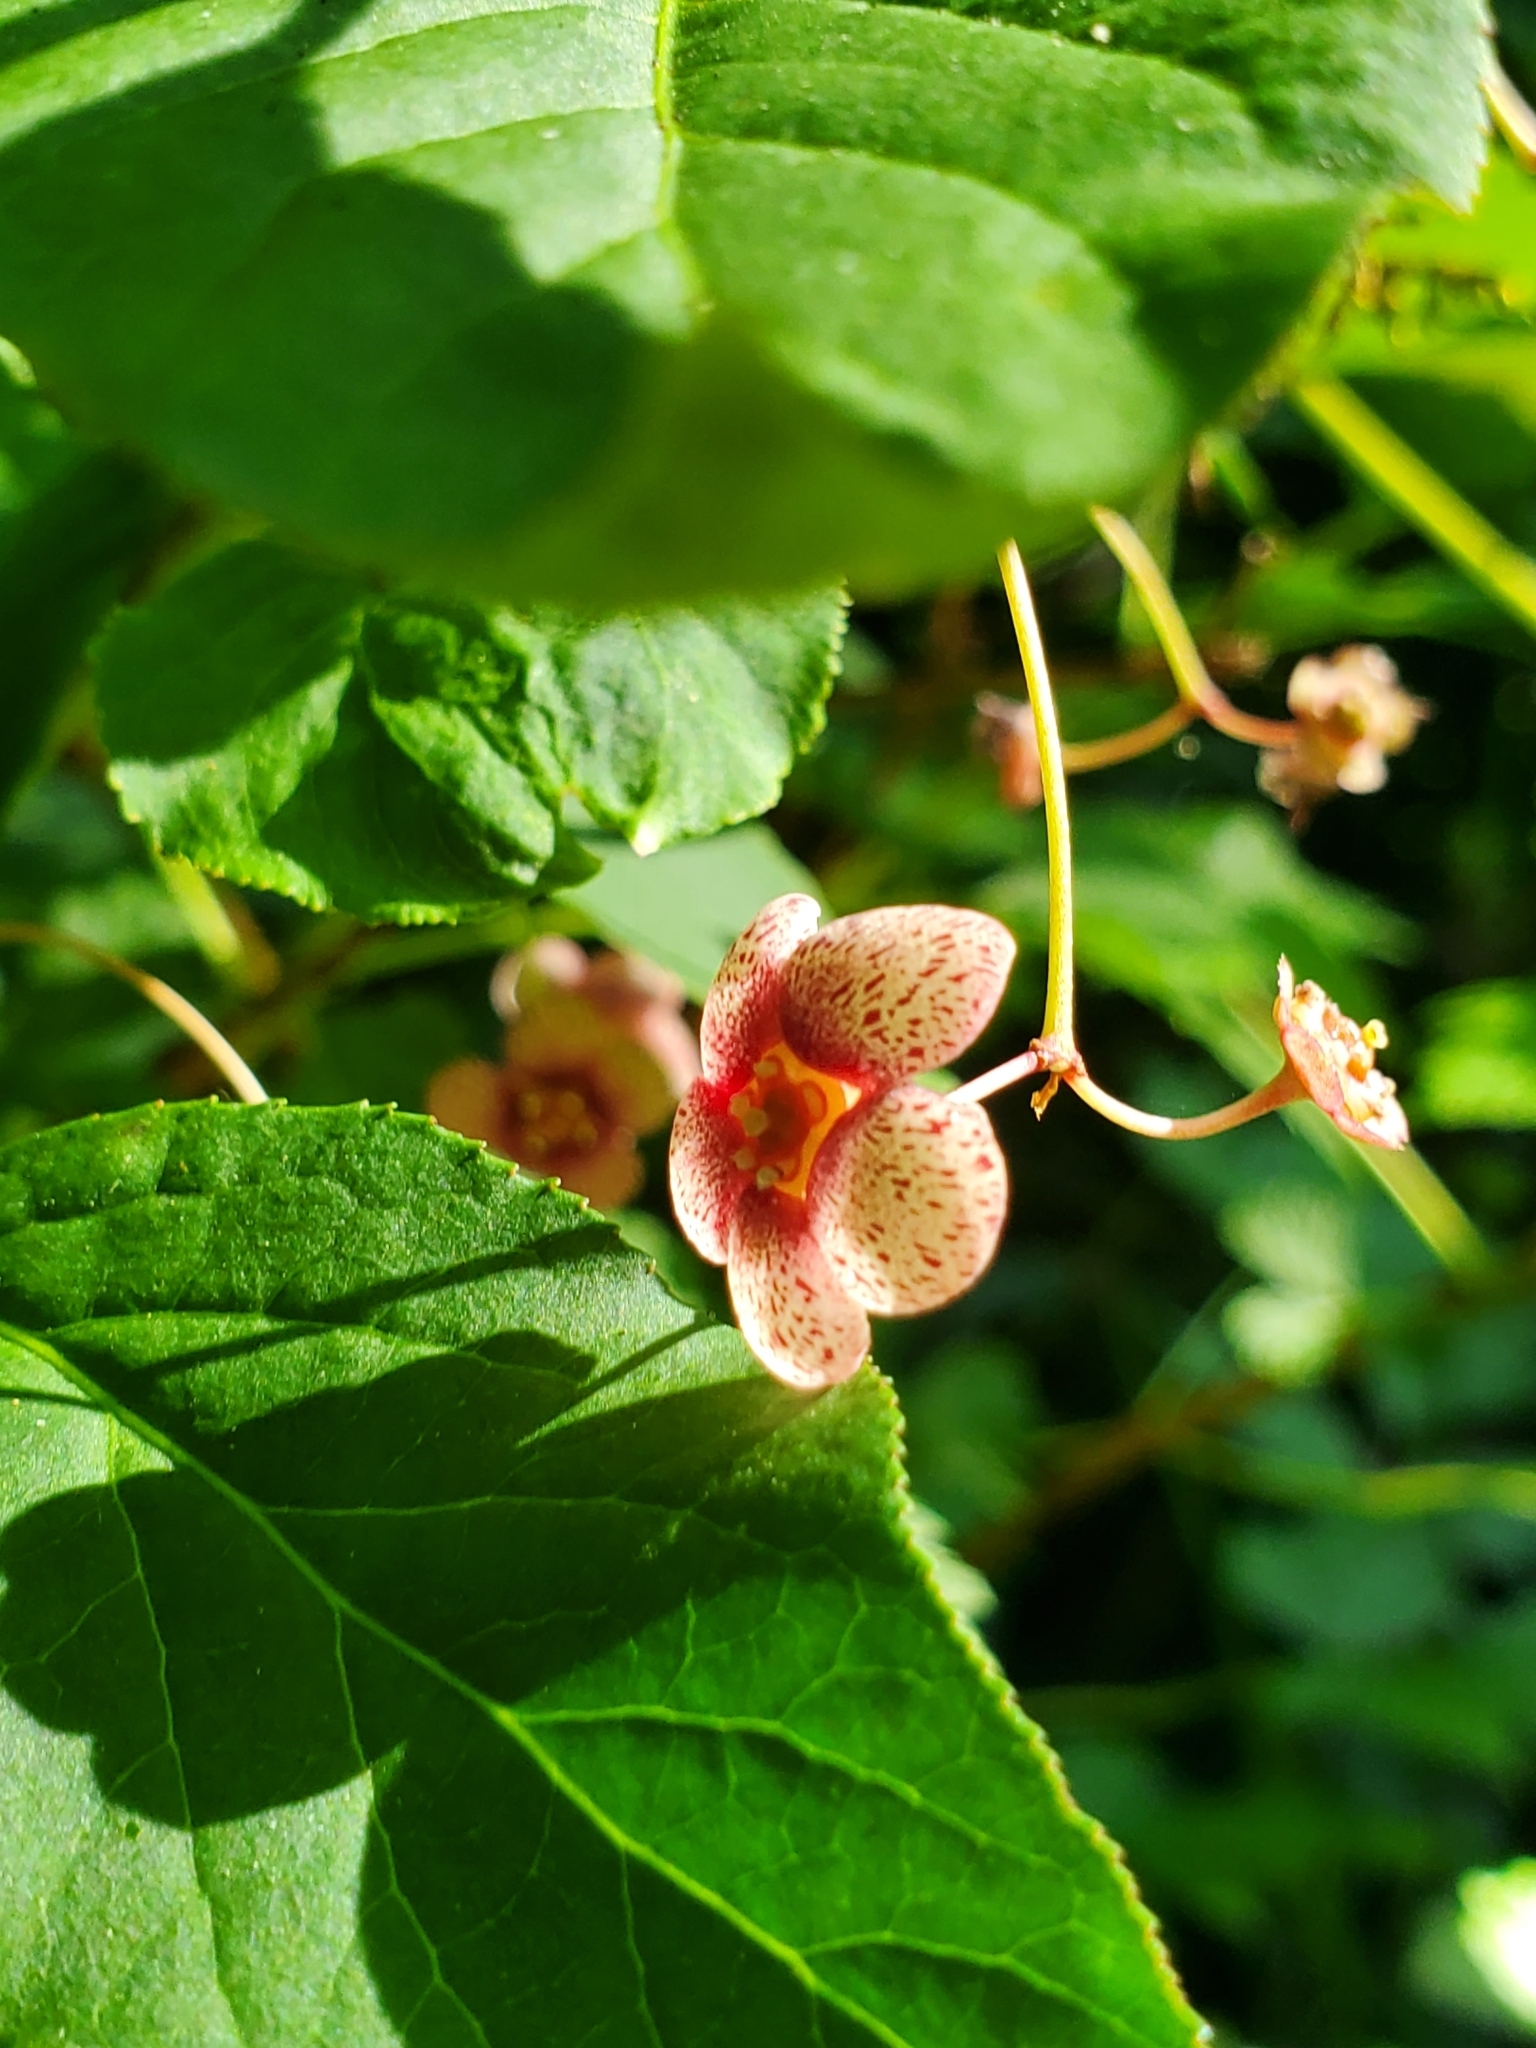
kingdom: Plantae
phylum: Tracheophyta
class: Magnoliopsida
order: Celastrales
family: Celastraceae
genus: Euonymus
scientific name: Euonymus occidentalis
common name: Western burningbush
